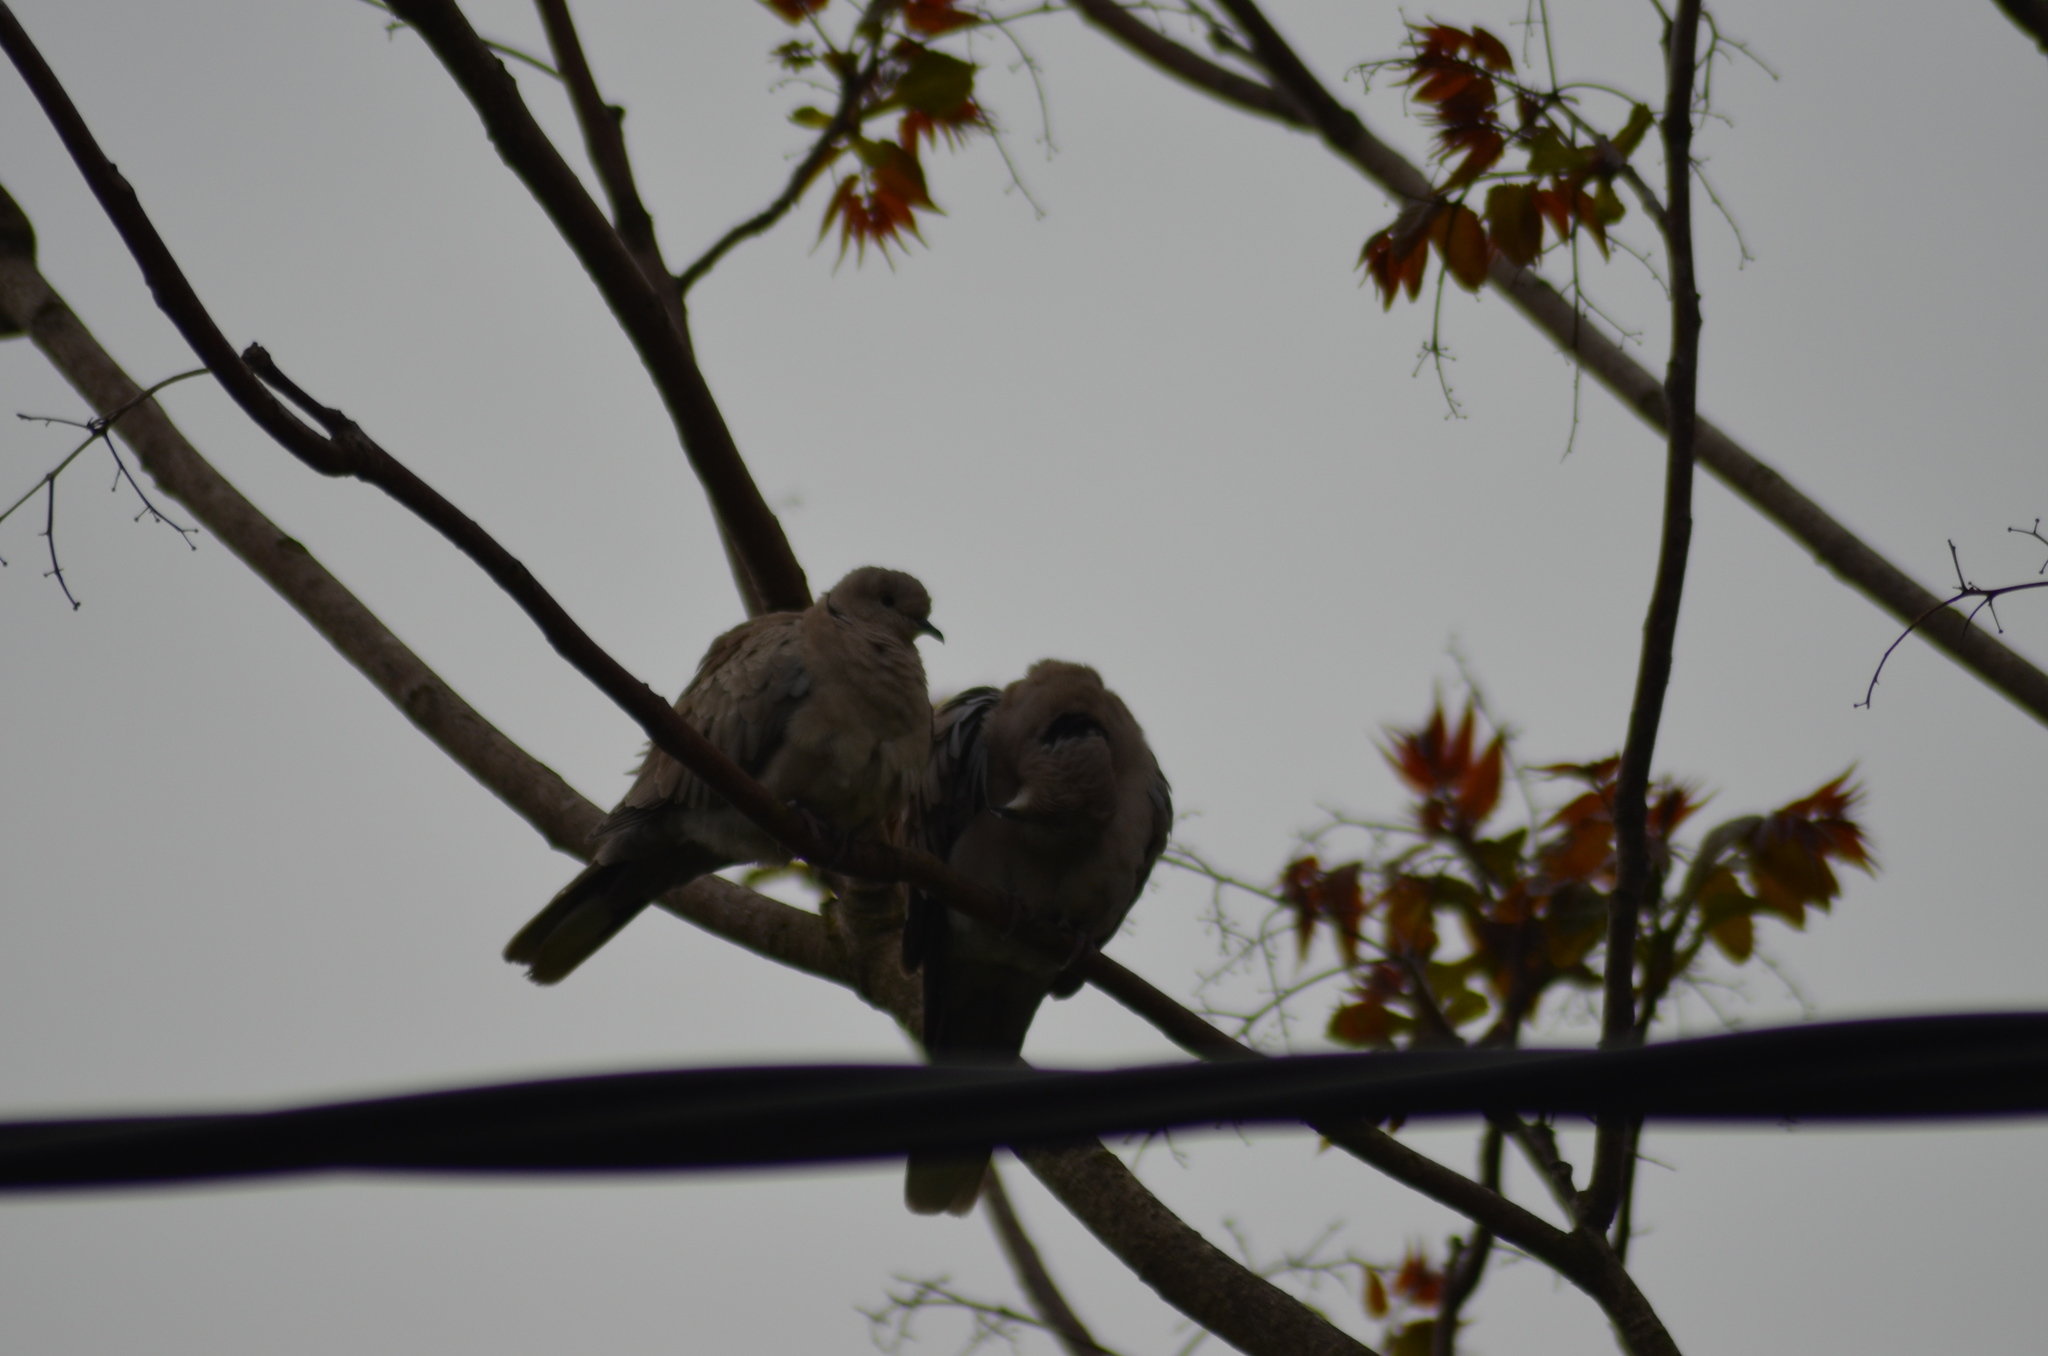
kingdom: Animalia
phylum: Chordata
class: Aves
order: Columbiformes
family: Columbidae
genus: Streptopelia
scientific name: Streptopelia decaocto
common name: Eurasian collared dove
